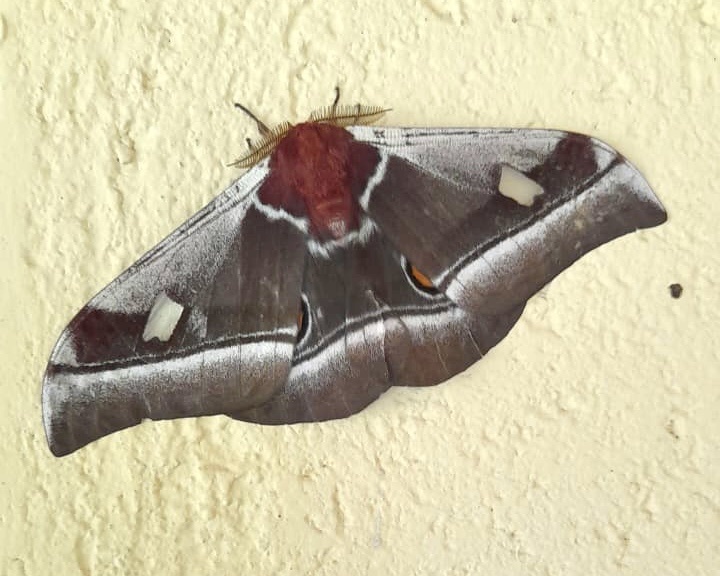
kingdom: Animalia
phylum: Arthropoda
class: Insecta
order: Lepidoptera
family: Saturniidae
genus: Bunaea
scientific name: Bunaea alcinoe
